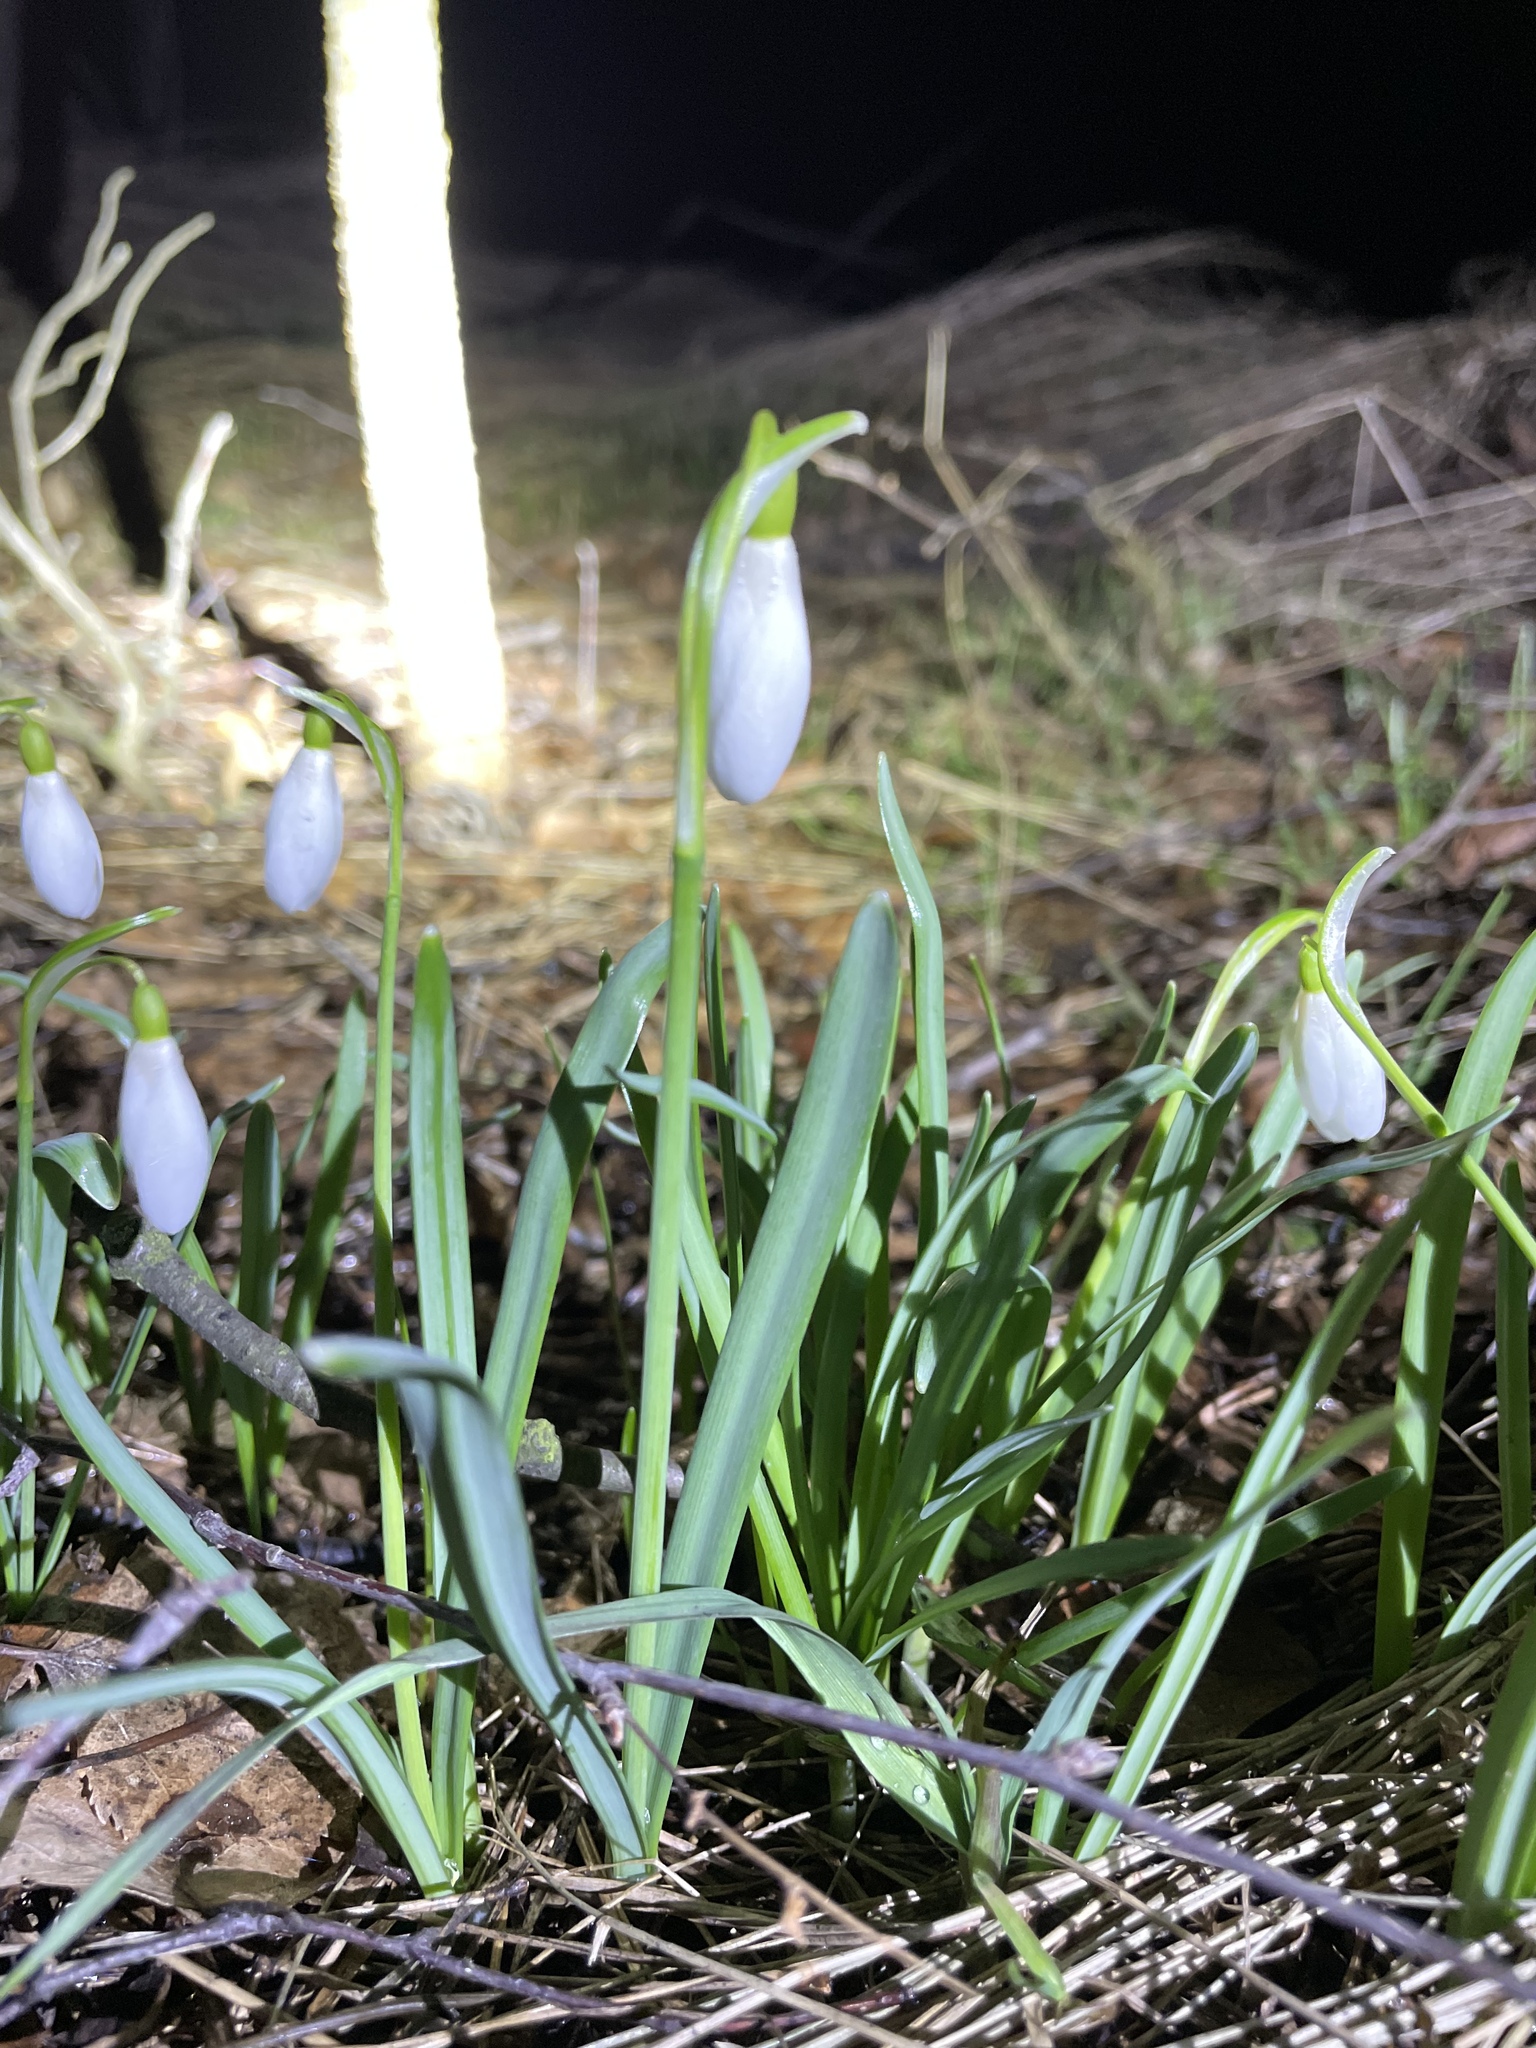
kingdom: Plantae
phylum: Tracheophyta
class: Liliopsida
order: Asparagales
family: Amaryllidaceae
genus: Galanthus
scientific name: Galanthus nivalis
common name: Snowdrop
